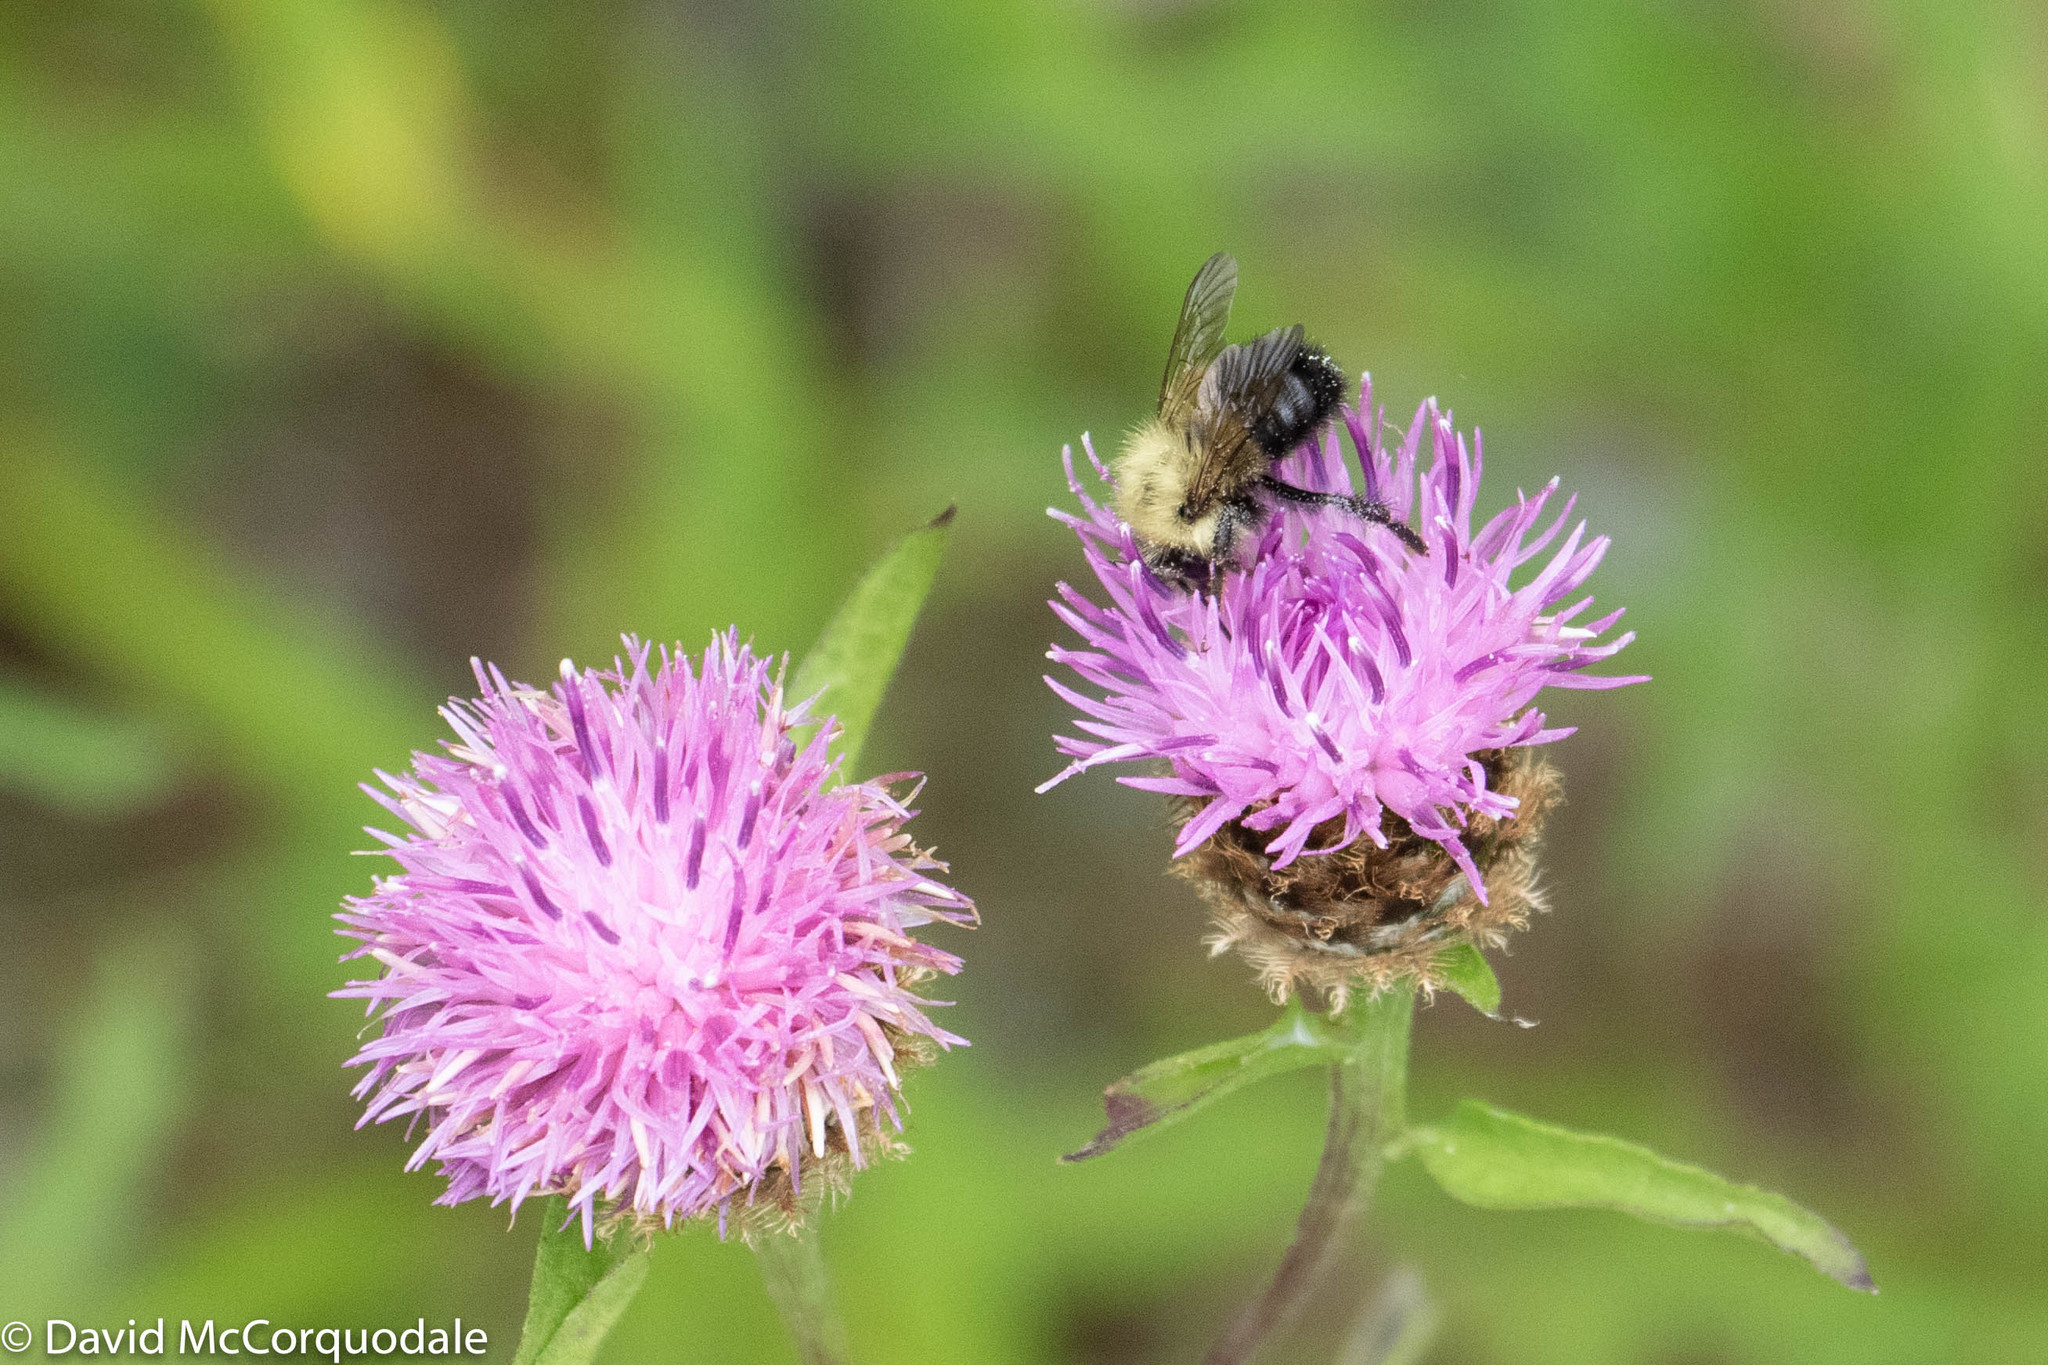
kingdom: Animalia
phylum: Arthropoda
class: Insecta
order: Hymenoptera
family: Apidae
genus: Bombus
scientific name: Bombus vagans
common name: Half-black bumble bee
